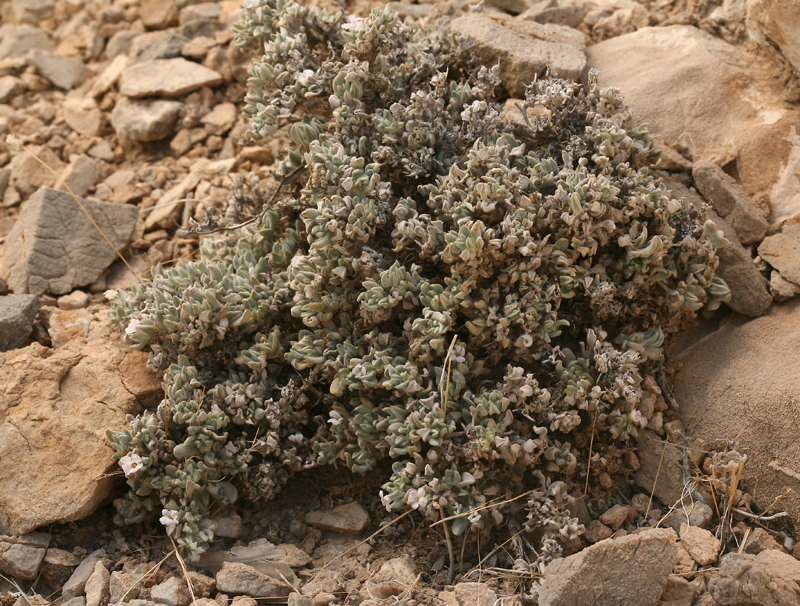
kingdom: Plantae
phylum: Tracheophyta
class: Magnoliopsida
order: Boraginales
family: Ehretiaceae
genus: Tiquilia
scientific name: Tiquilia canescens
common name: Hairy tiquilia
